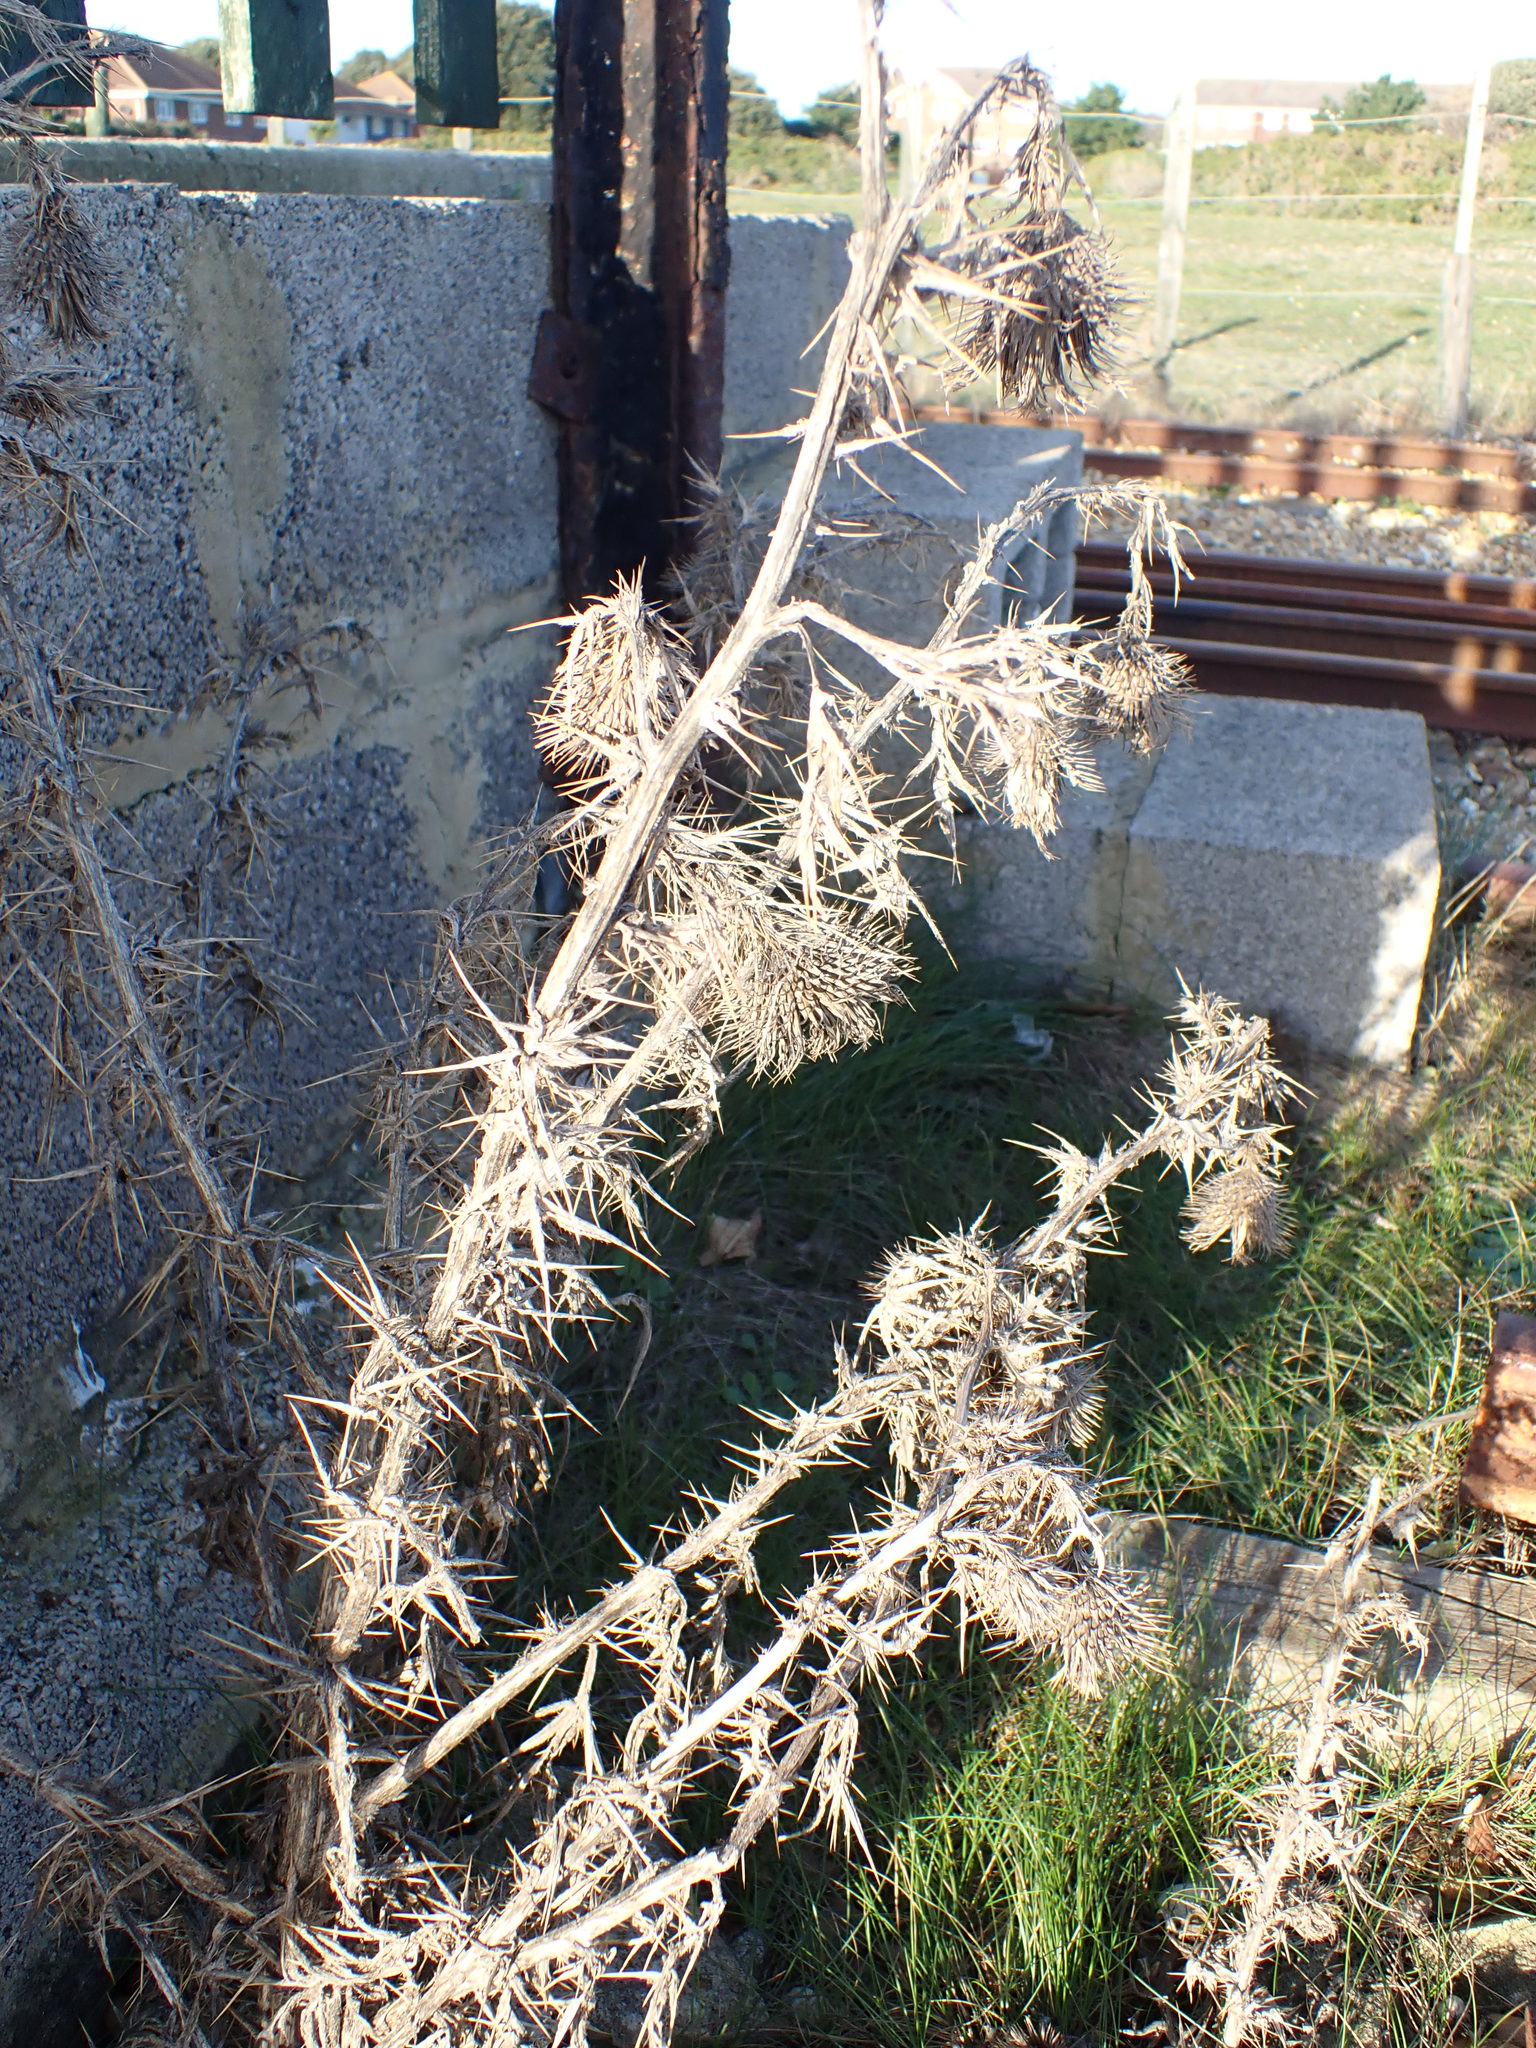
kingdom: Plantae
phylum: Tracheophyta
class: Magnoliopsida
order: Asterales
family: Asteraceae
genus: Cirsium
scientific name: Cirsium vulgare
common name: Bull thistle
